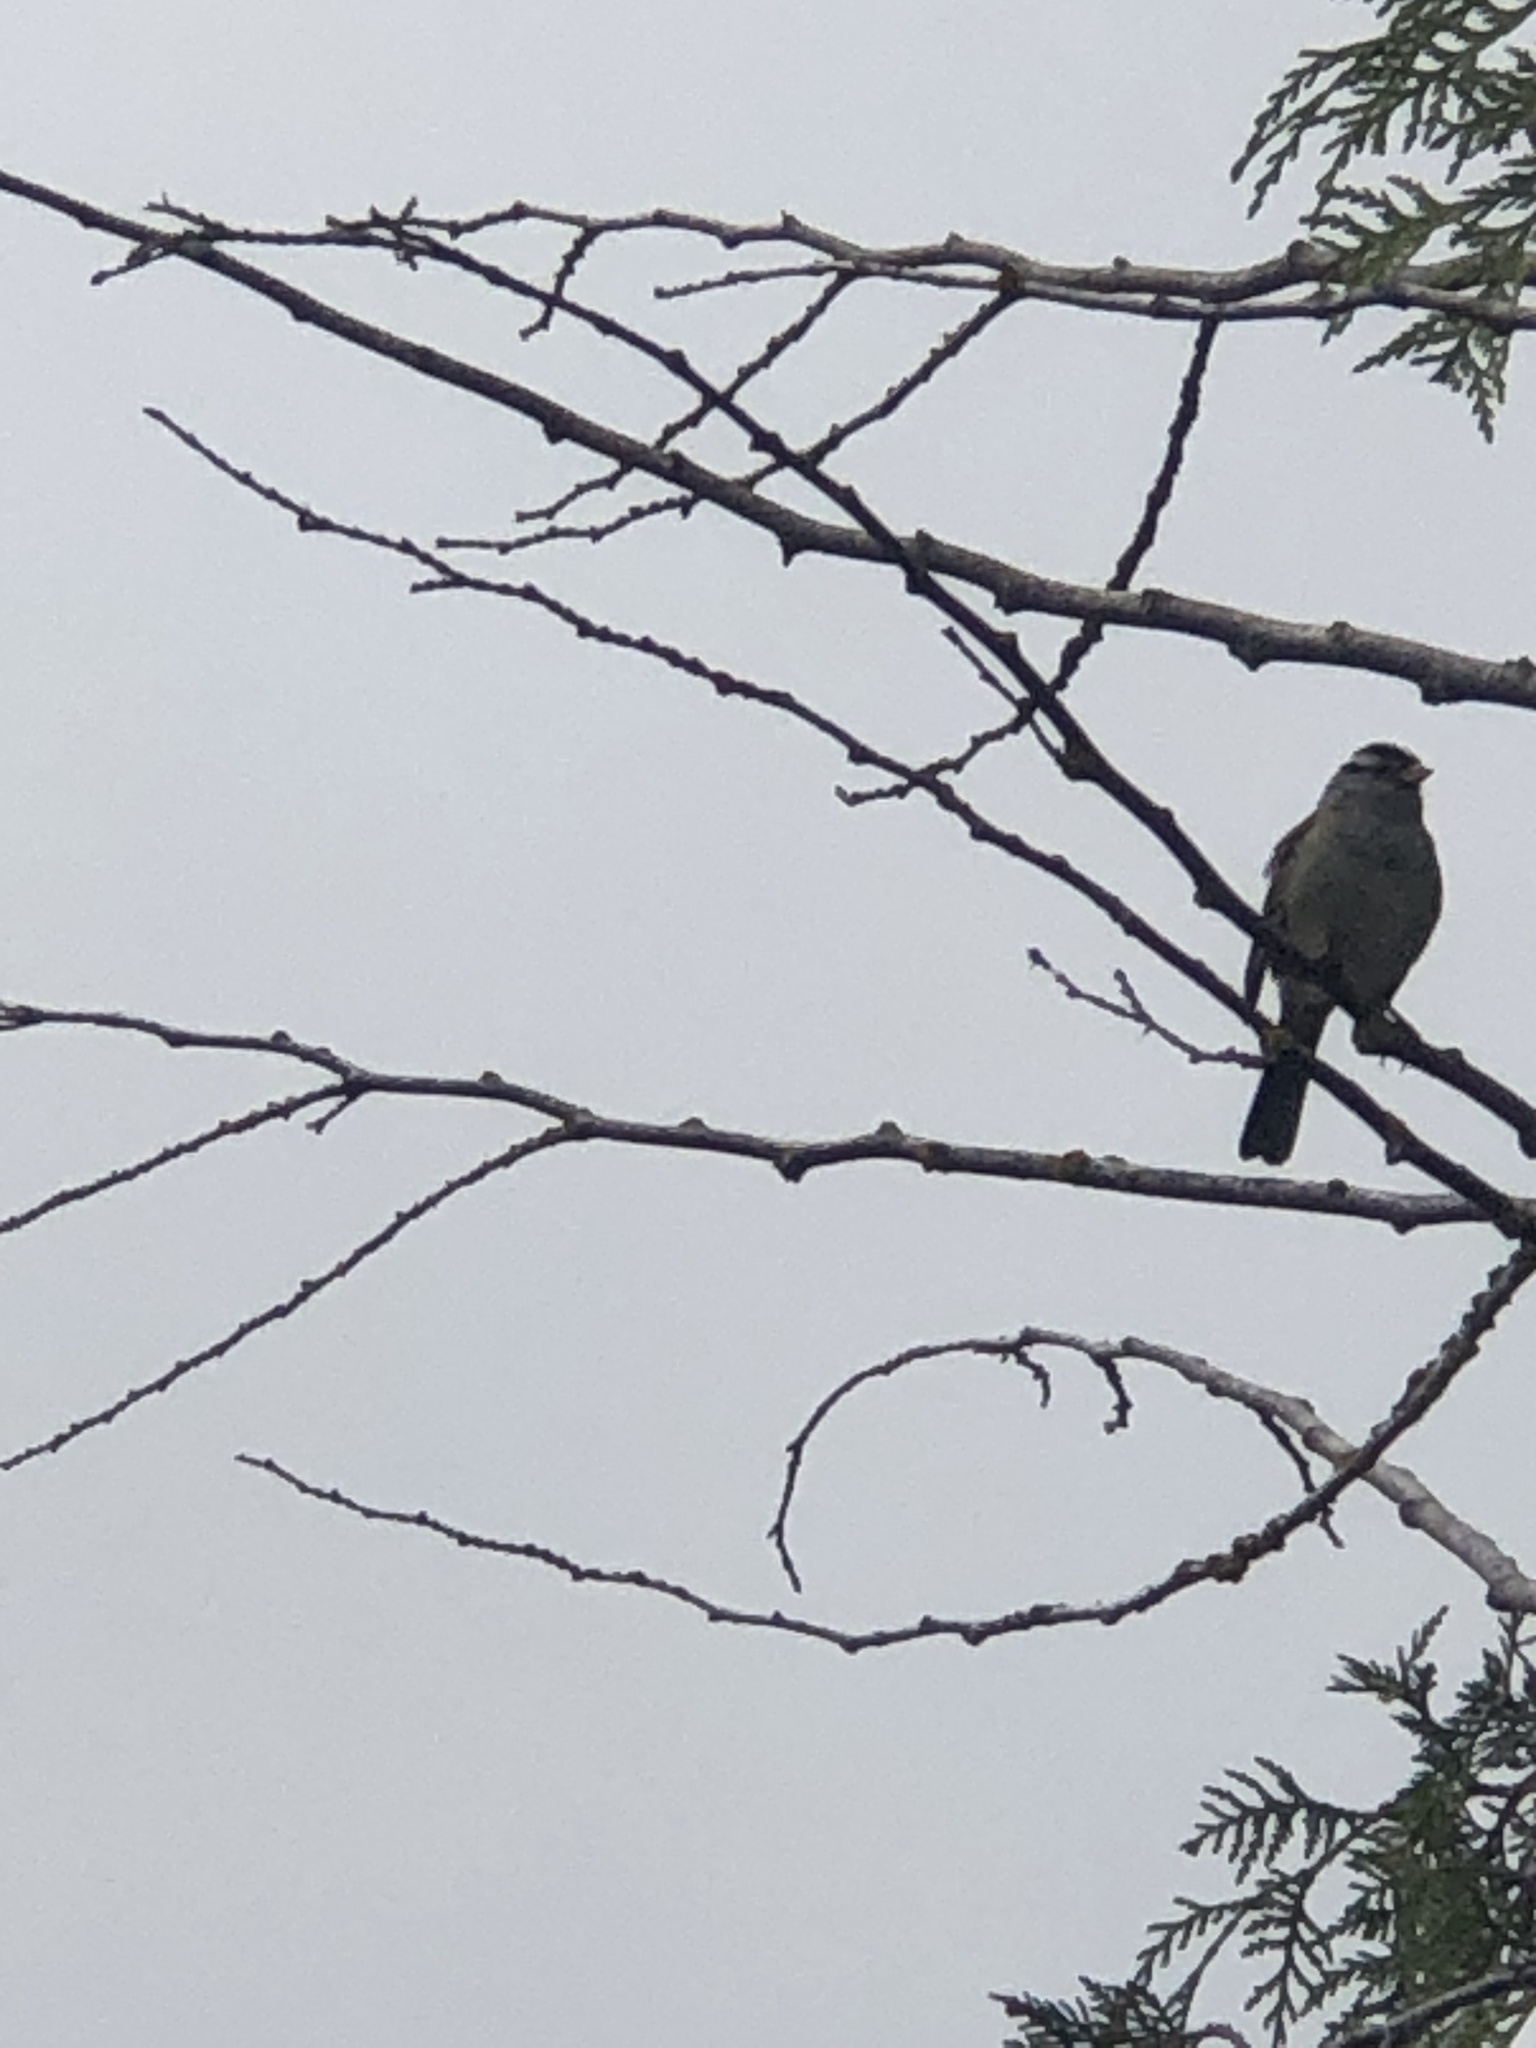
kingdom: Animalia
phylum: Chordata
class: Aves
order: Passeriformes
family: Passerellidae
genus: Zonotrichia
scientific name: Zonotrichia leucophrys
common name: White-crowned sparrow
